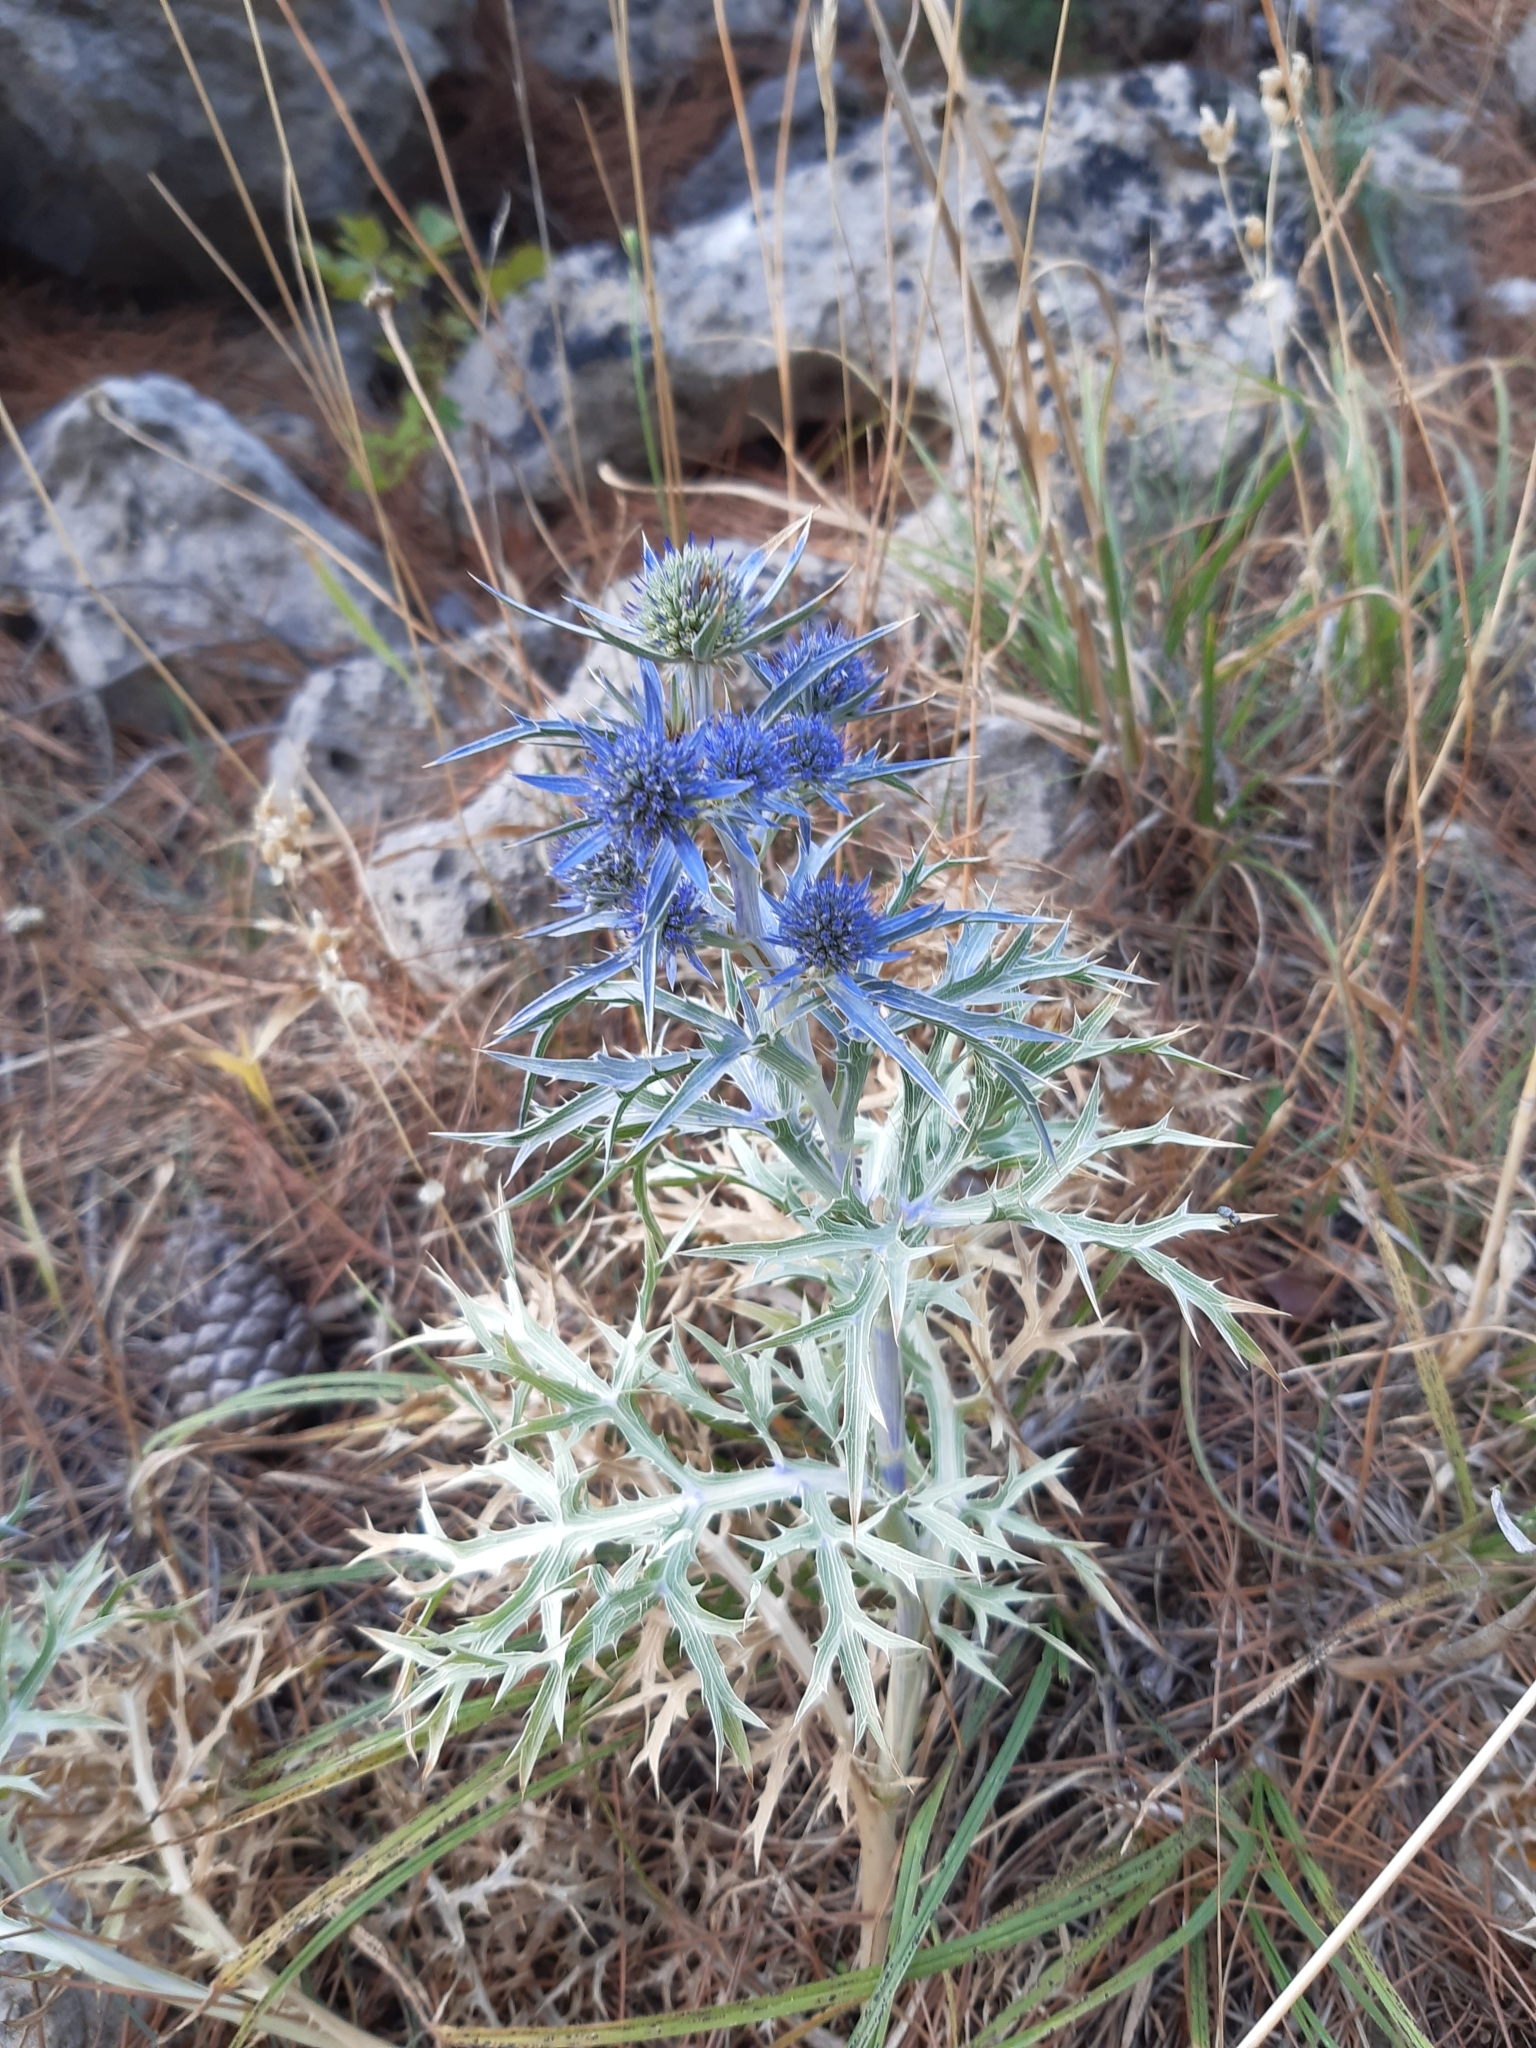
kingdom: Plantae
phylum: Tracheophyta
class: Magnoliopsida
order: Apiales
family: Apiaceae
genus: Eryngium
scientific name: Eryngium amethystinum
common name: Amethyst eryngo
